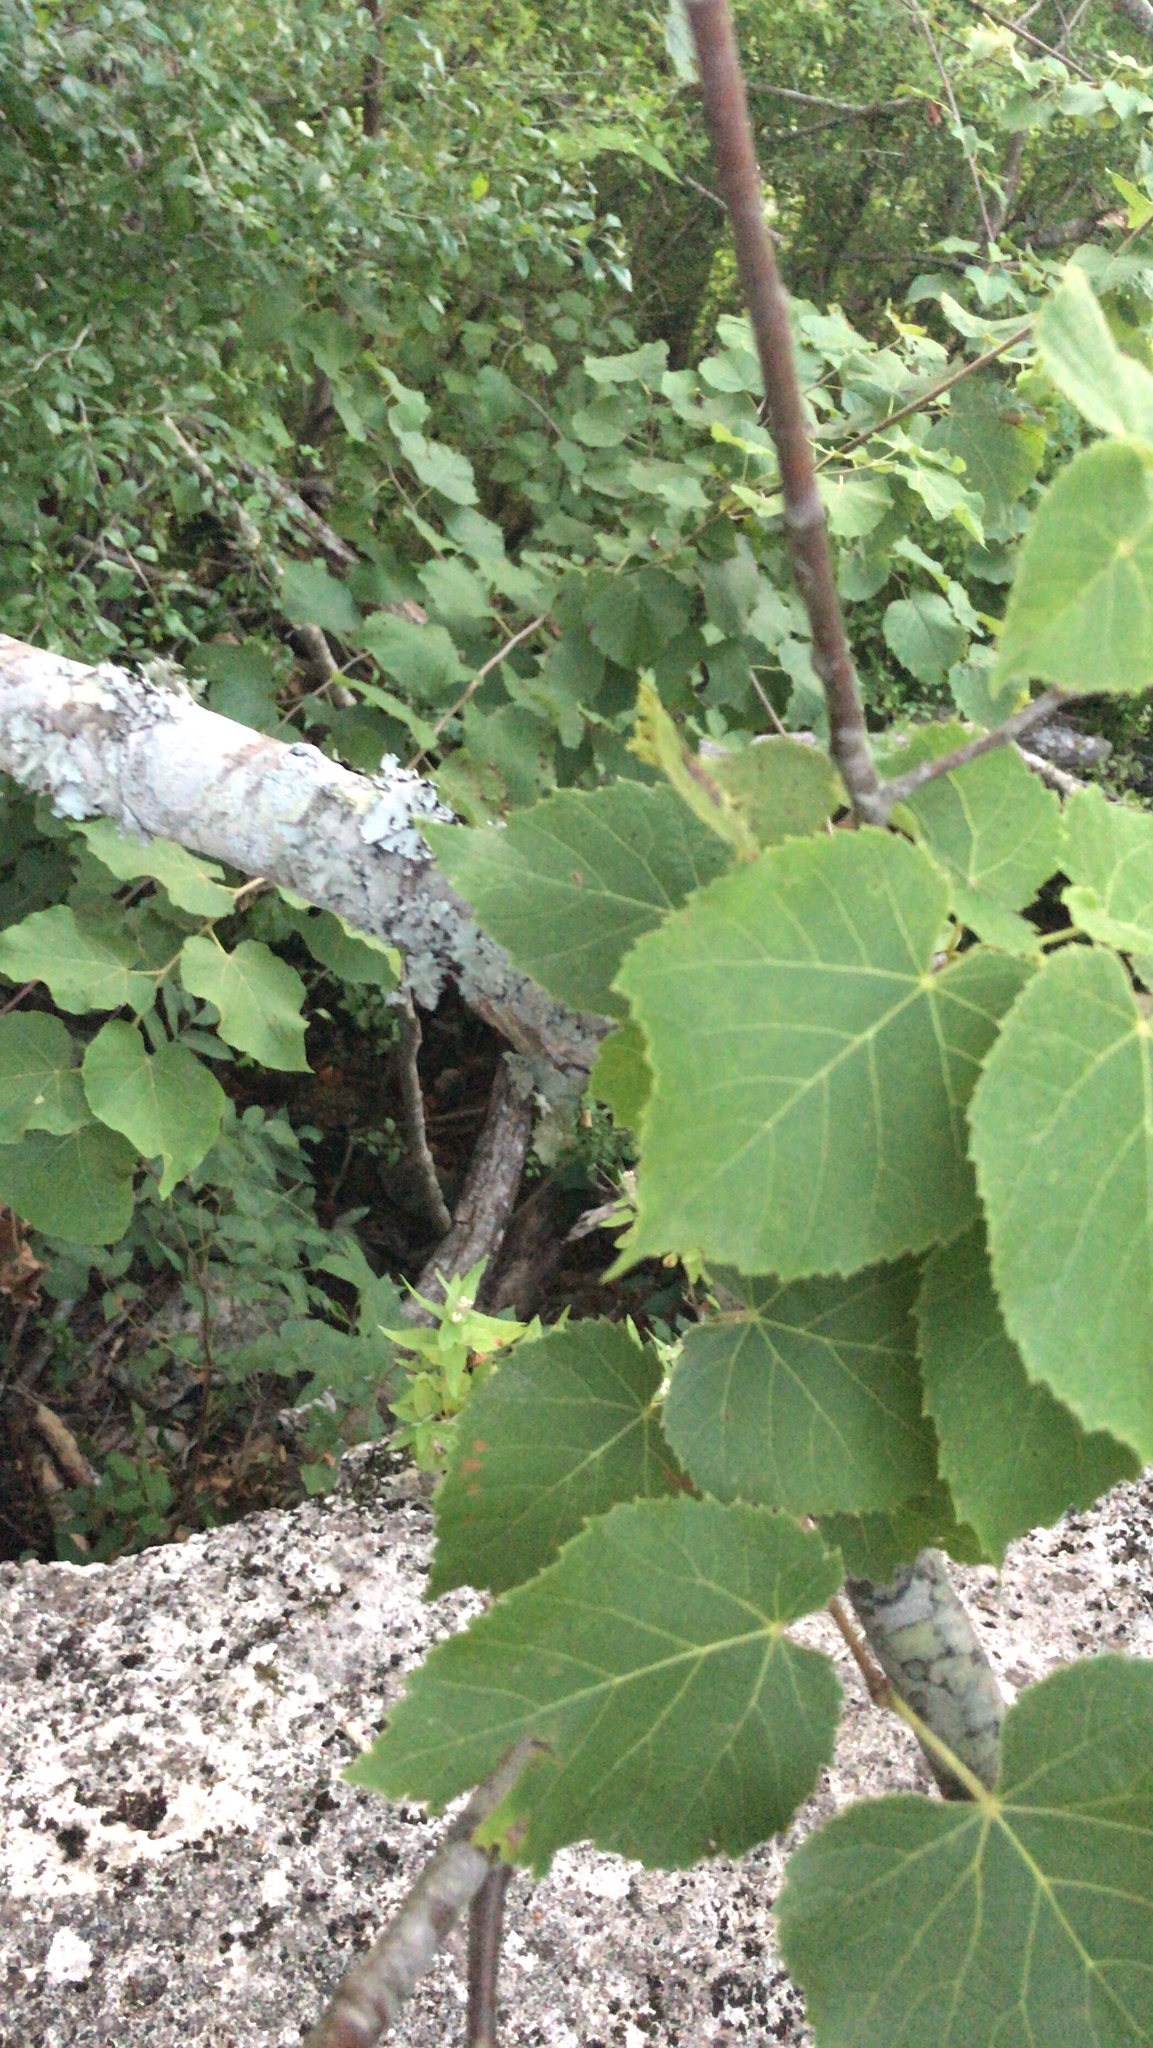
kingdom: Plantae
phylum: Tracheophyta
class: Magnoliopsida
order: Malvales
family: Malvaceae
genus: Tilia
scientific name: Tilia americana
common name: Basswood
